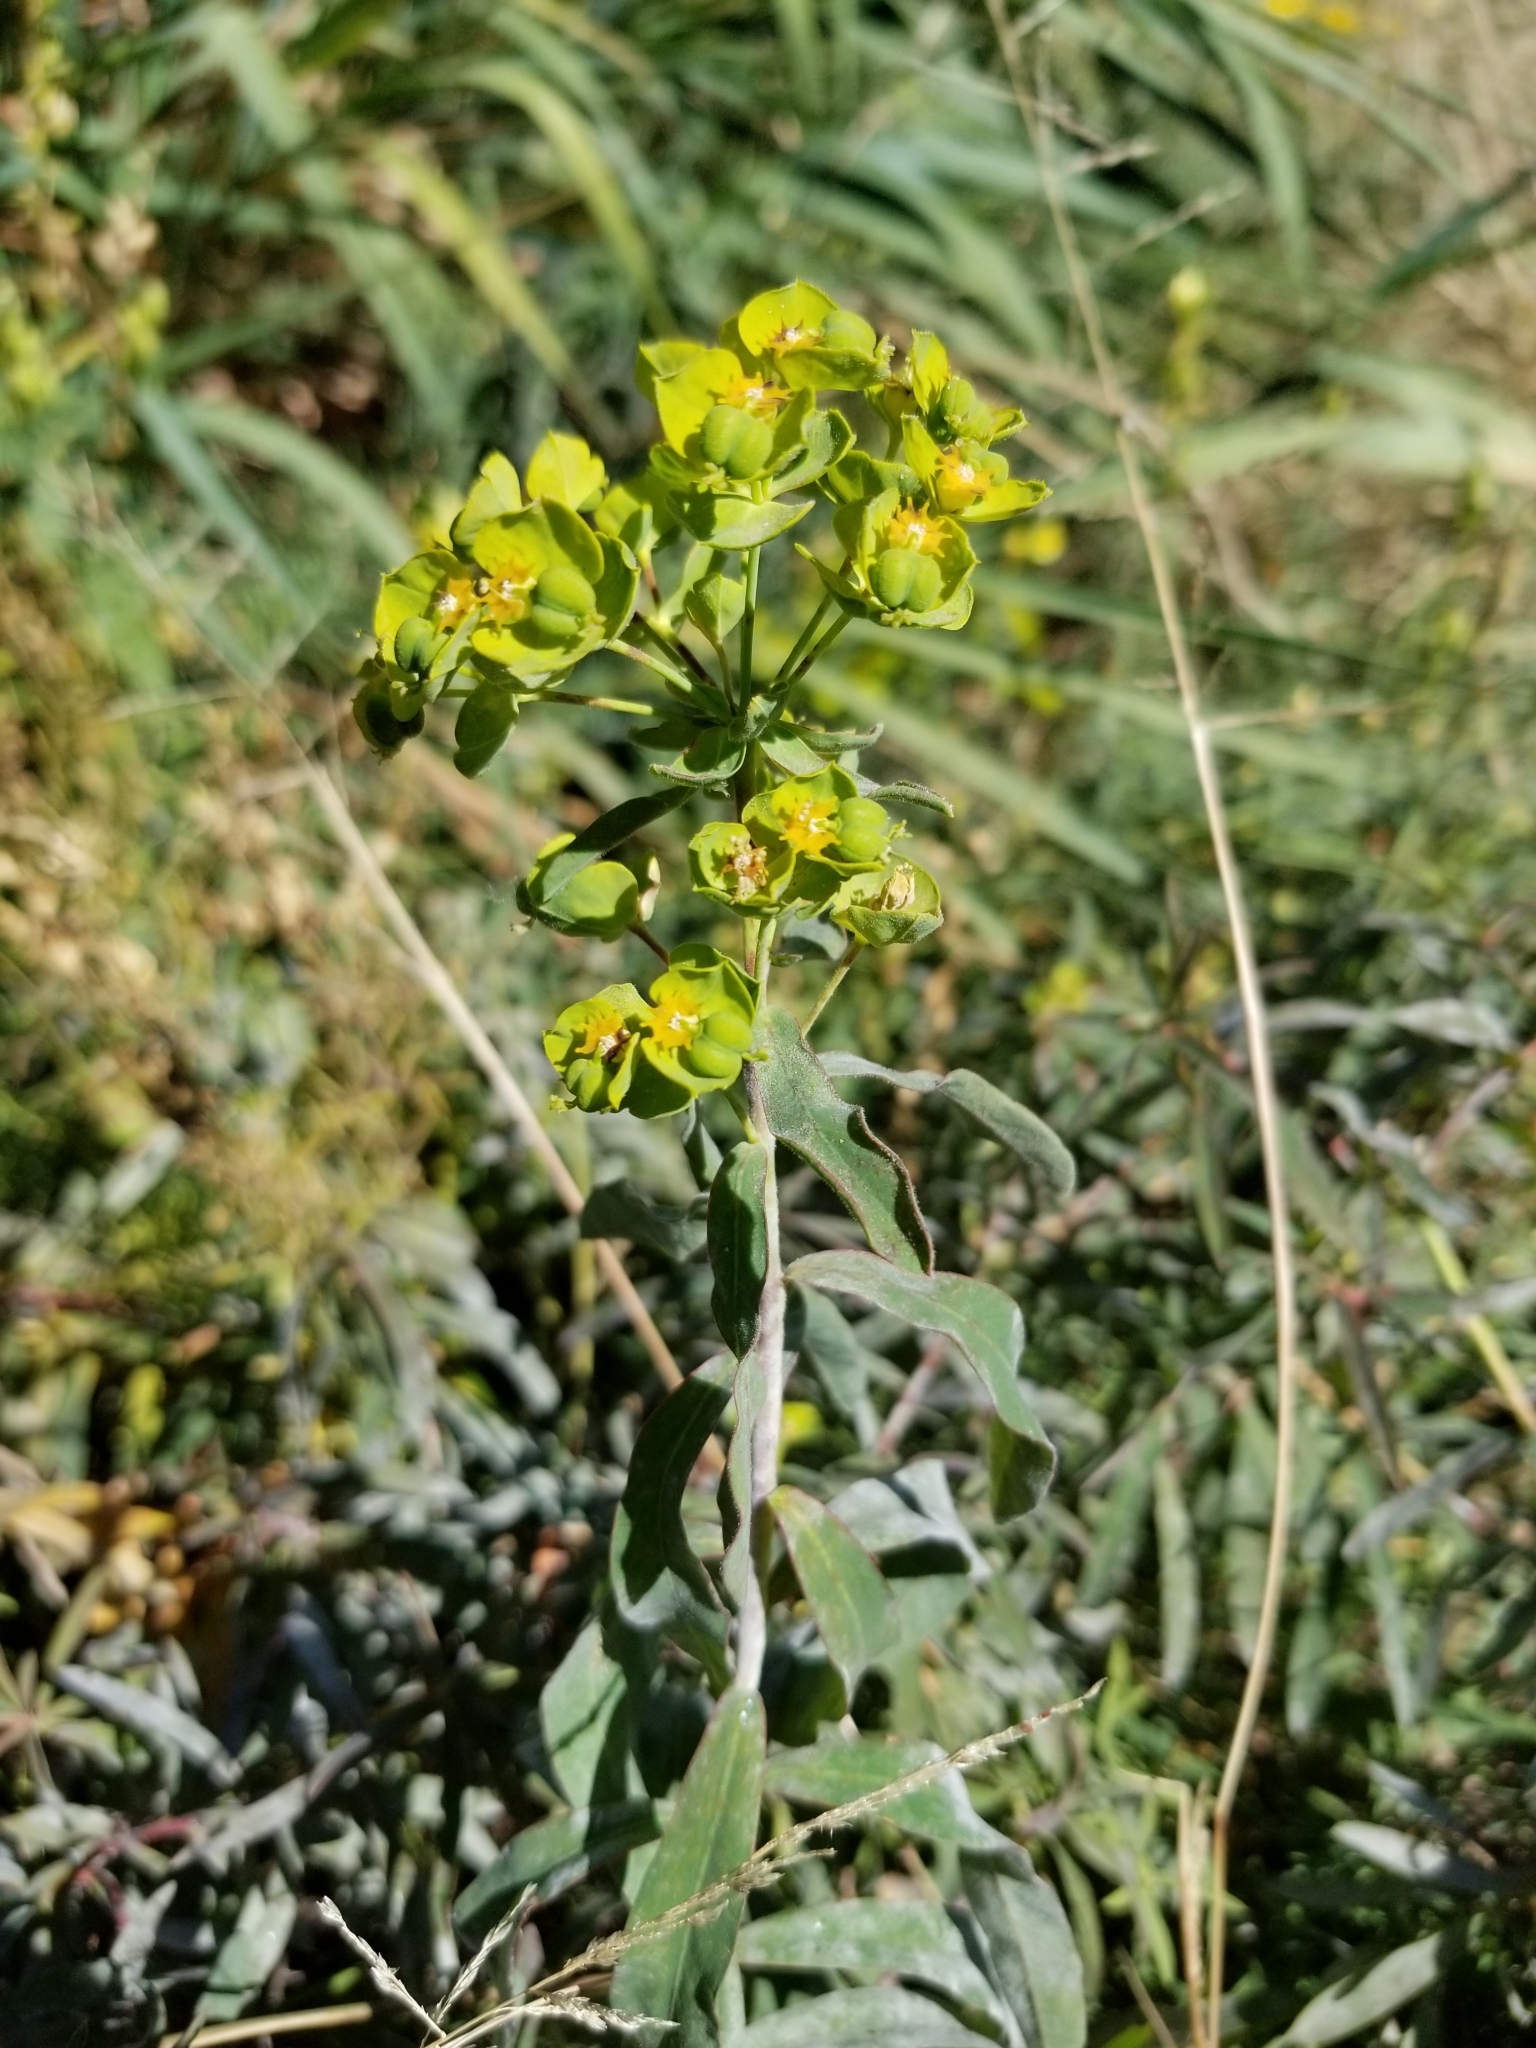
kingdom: Plantae
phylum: Tracheophyta
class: Magnoliopsida
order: Malpighiales
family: Euphorbiaceae
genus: Euphorbia
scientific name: Euphorbia virgata
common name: Leafy spurge
